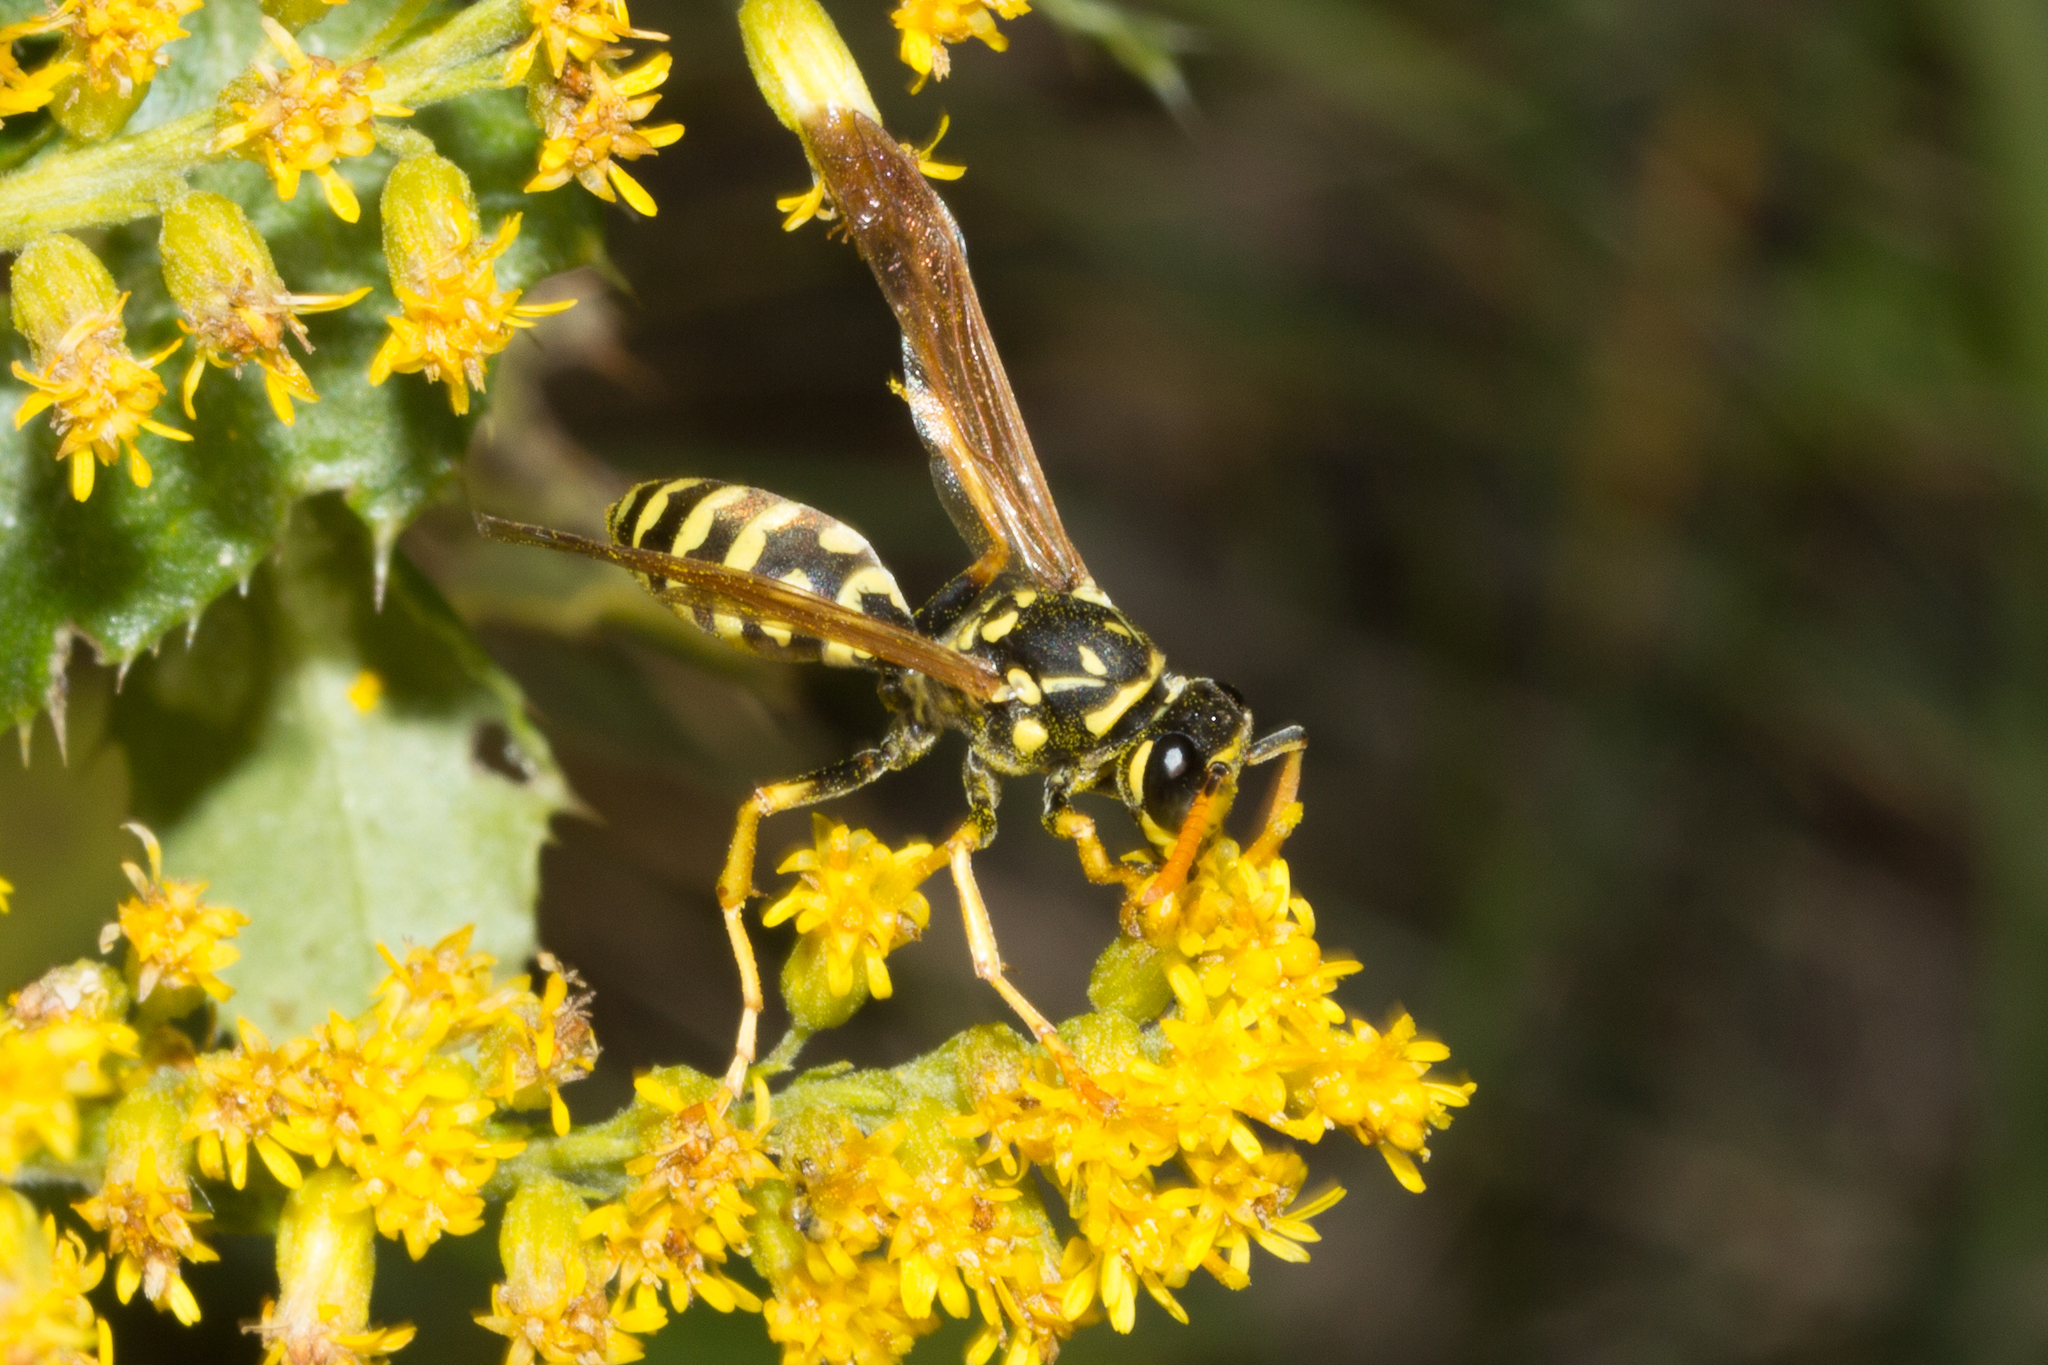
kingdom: Animalia
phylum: Arthropoda
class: Insecta
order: Hymenoptera
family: Eumenidae
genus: Polistes
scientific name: Polistes dominula
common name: Paper wasp
